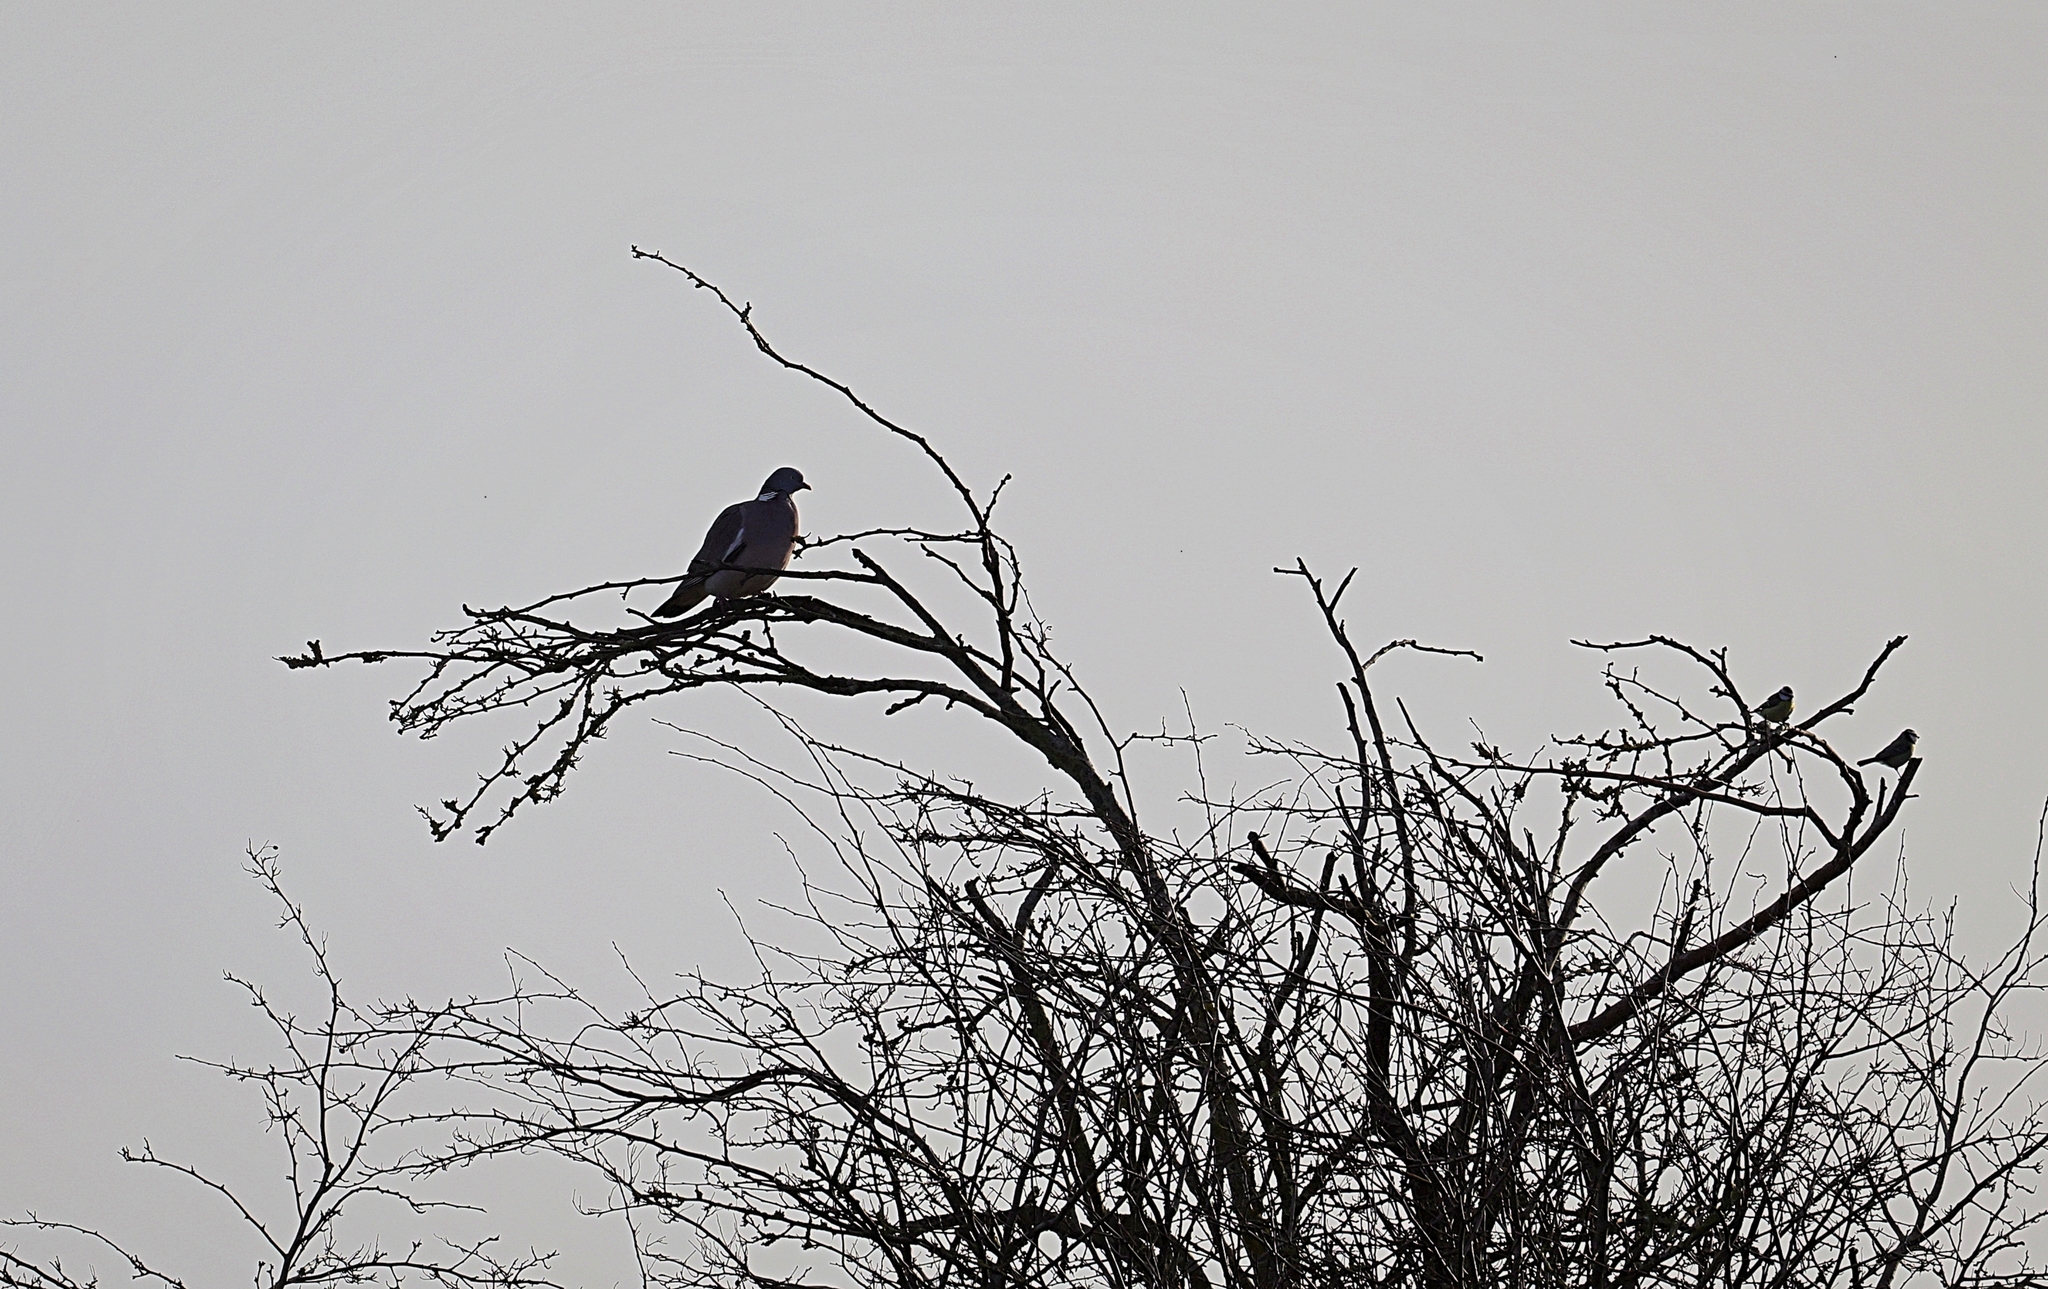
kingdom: Animalia
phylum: Chordata
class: Aves
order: Columbiformes
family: Columbidae
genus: Columba
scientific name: Columba palumbus
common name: Common wood pigeon
